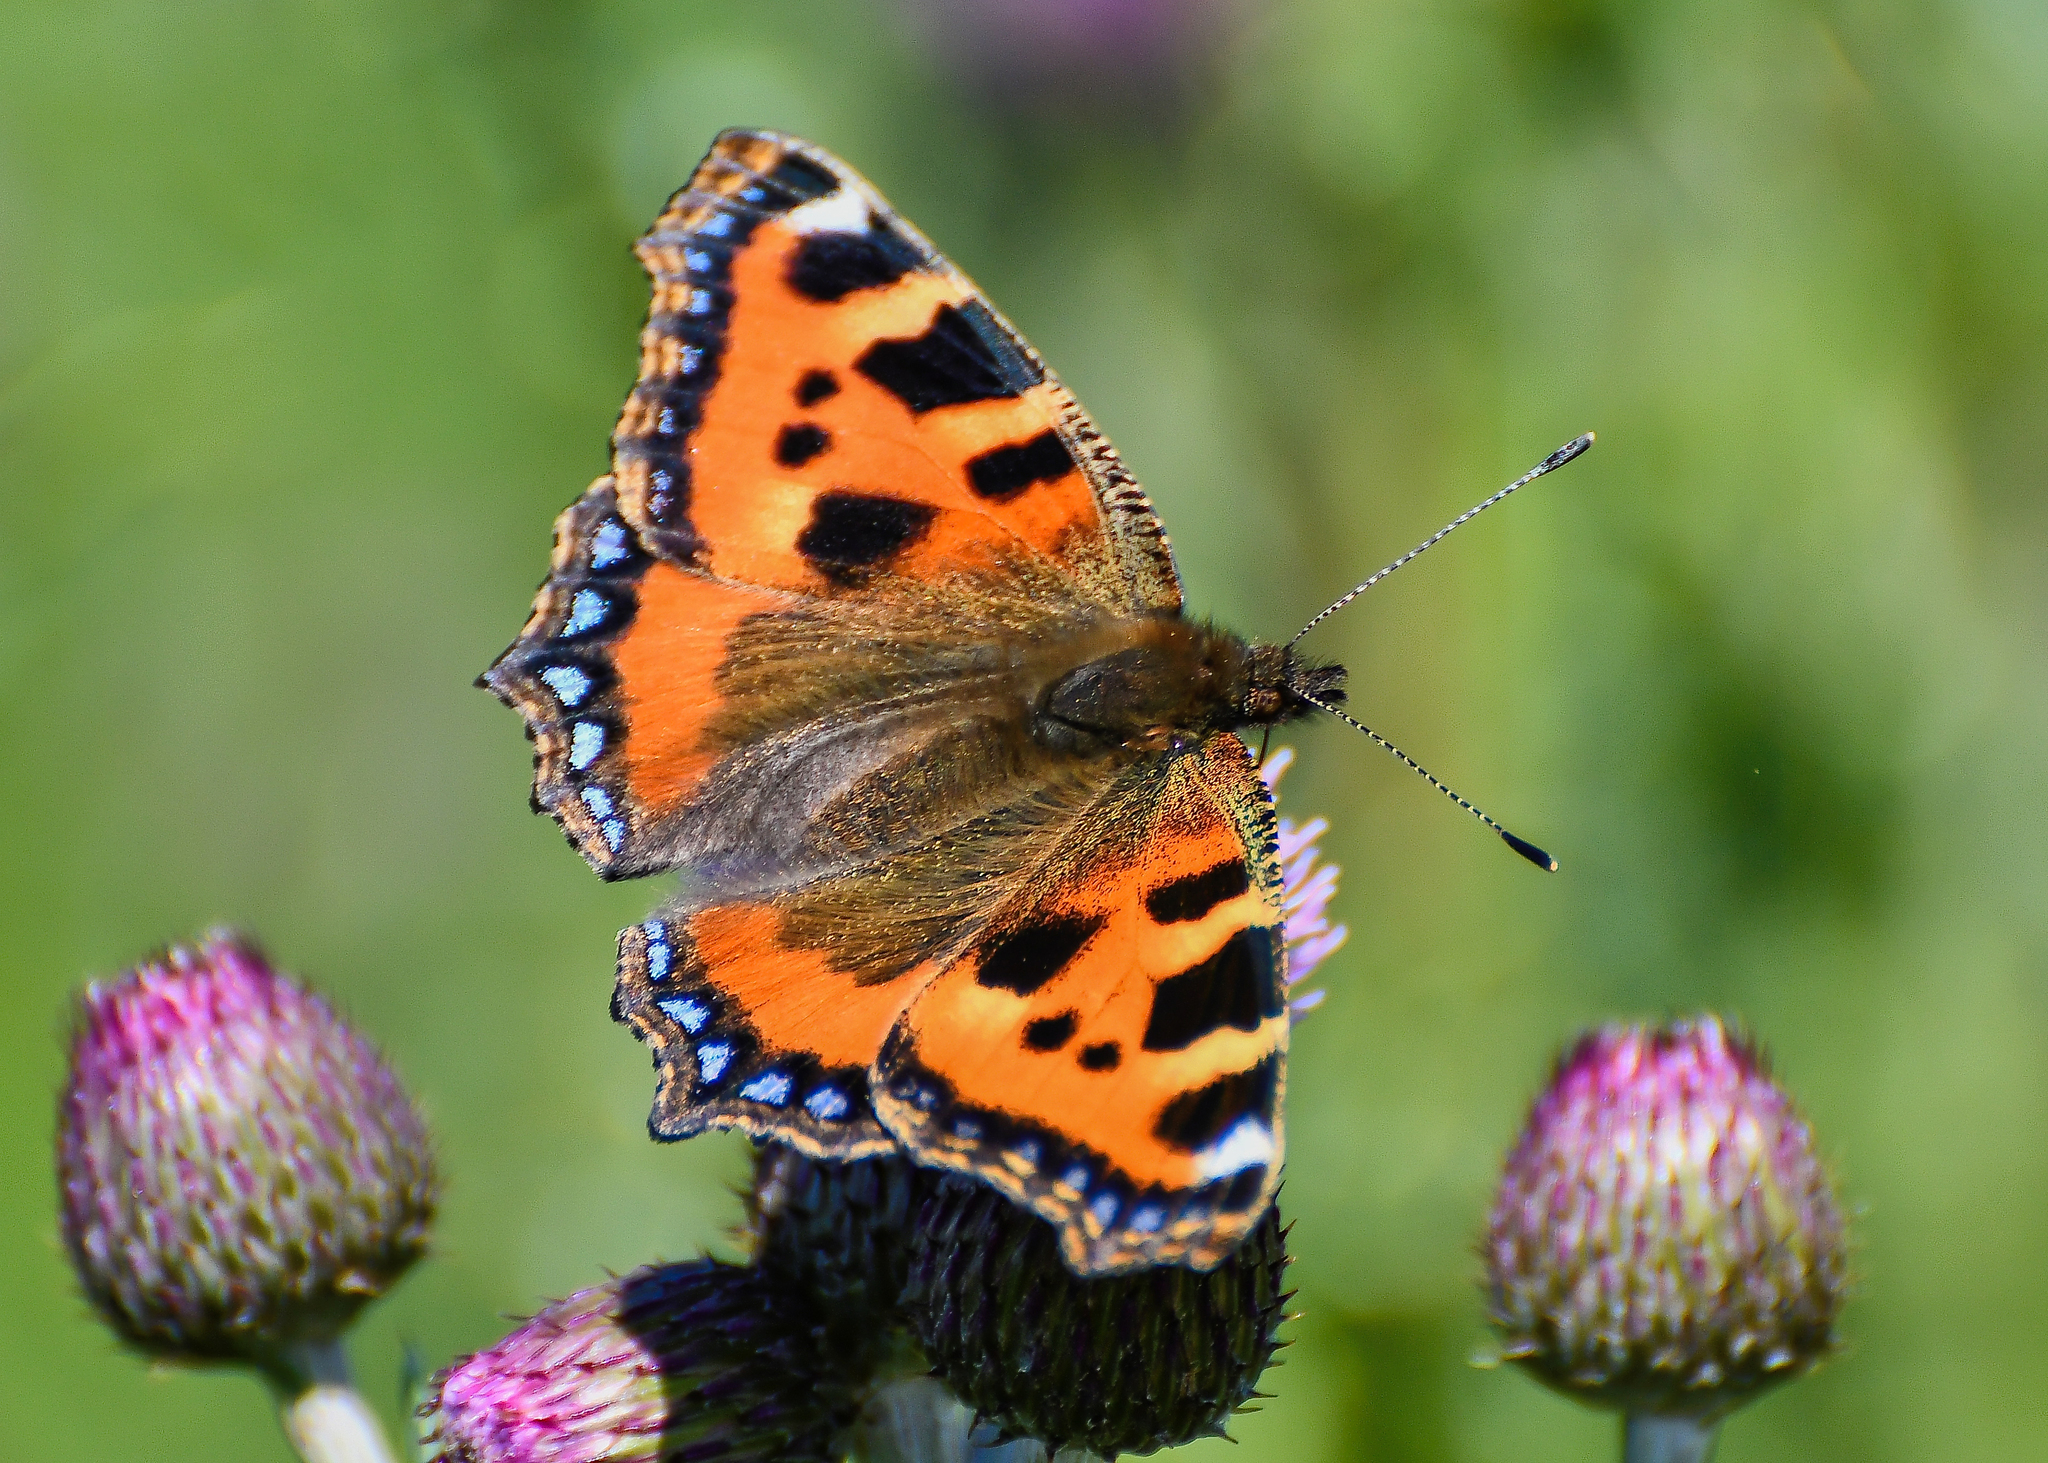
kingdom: Animalia
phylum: Arthropoda
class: Insecta
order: Lepidoptera
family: Nymphalidae
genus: Aglais
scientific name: Aglais urticae
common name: Small tortoiseshell
